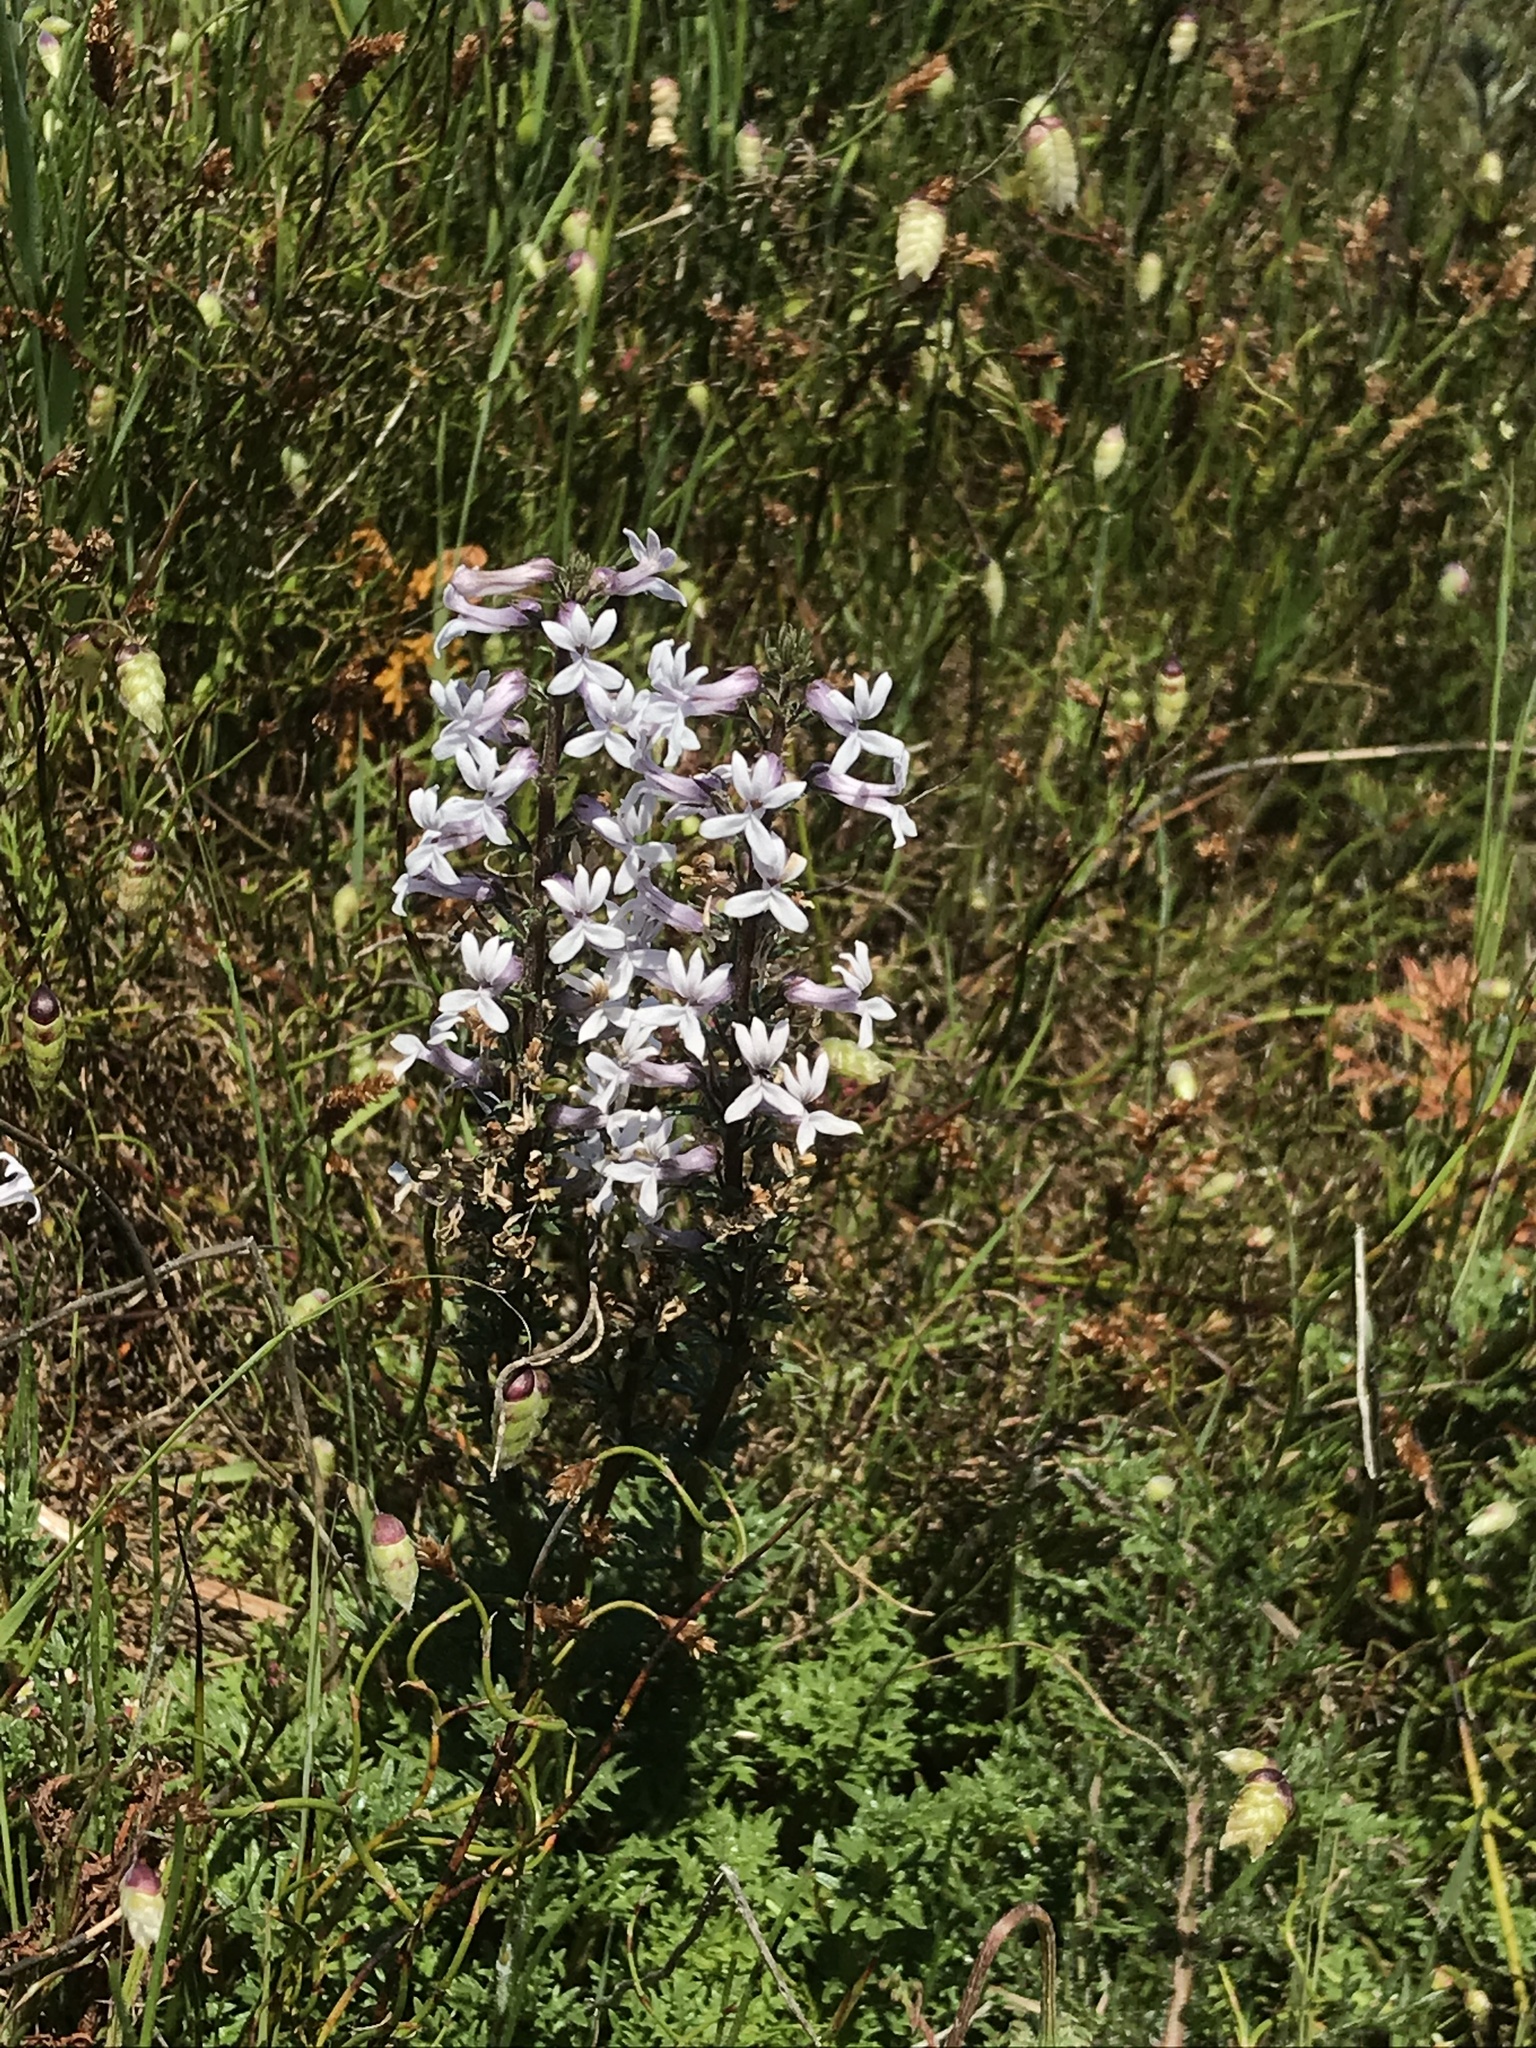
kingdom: Plantae
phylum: Tracheophyta
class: Magnoliopsida
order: Asterales
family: Campanulaceae
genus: Cyphia
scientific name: Cyphia bulbosa
